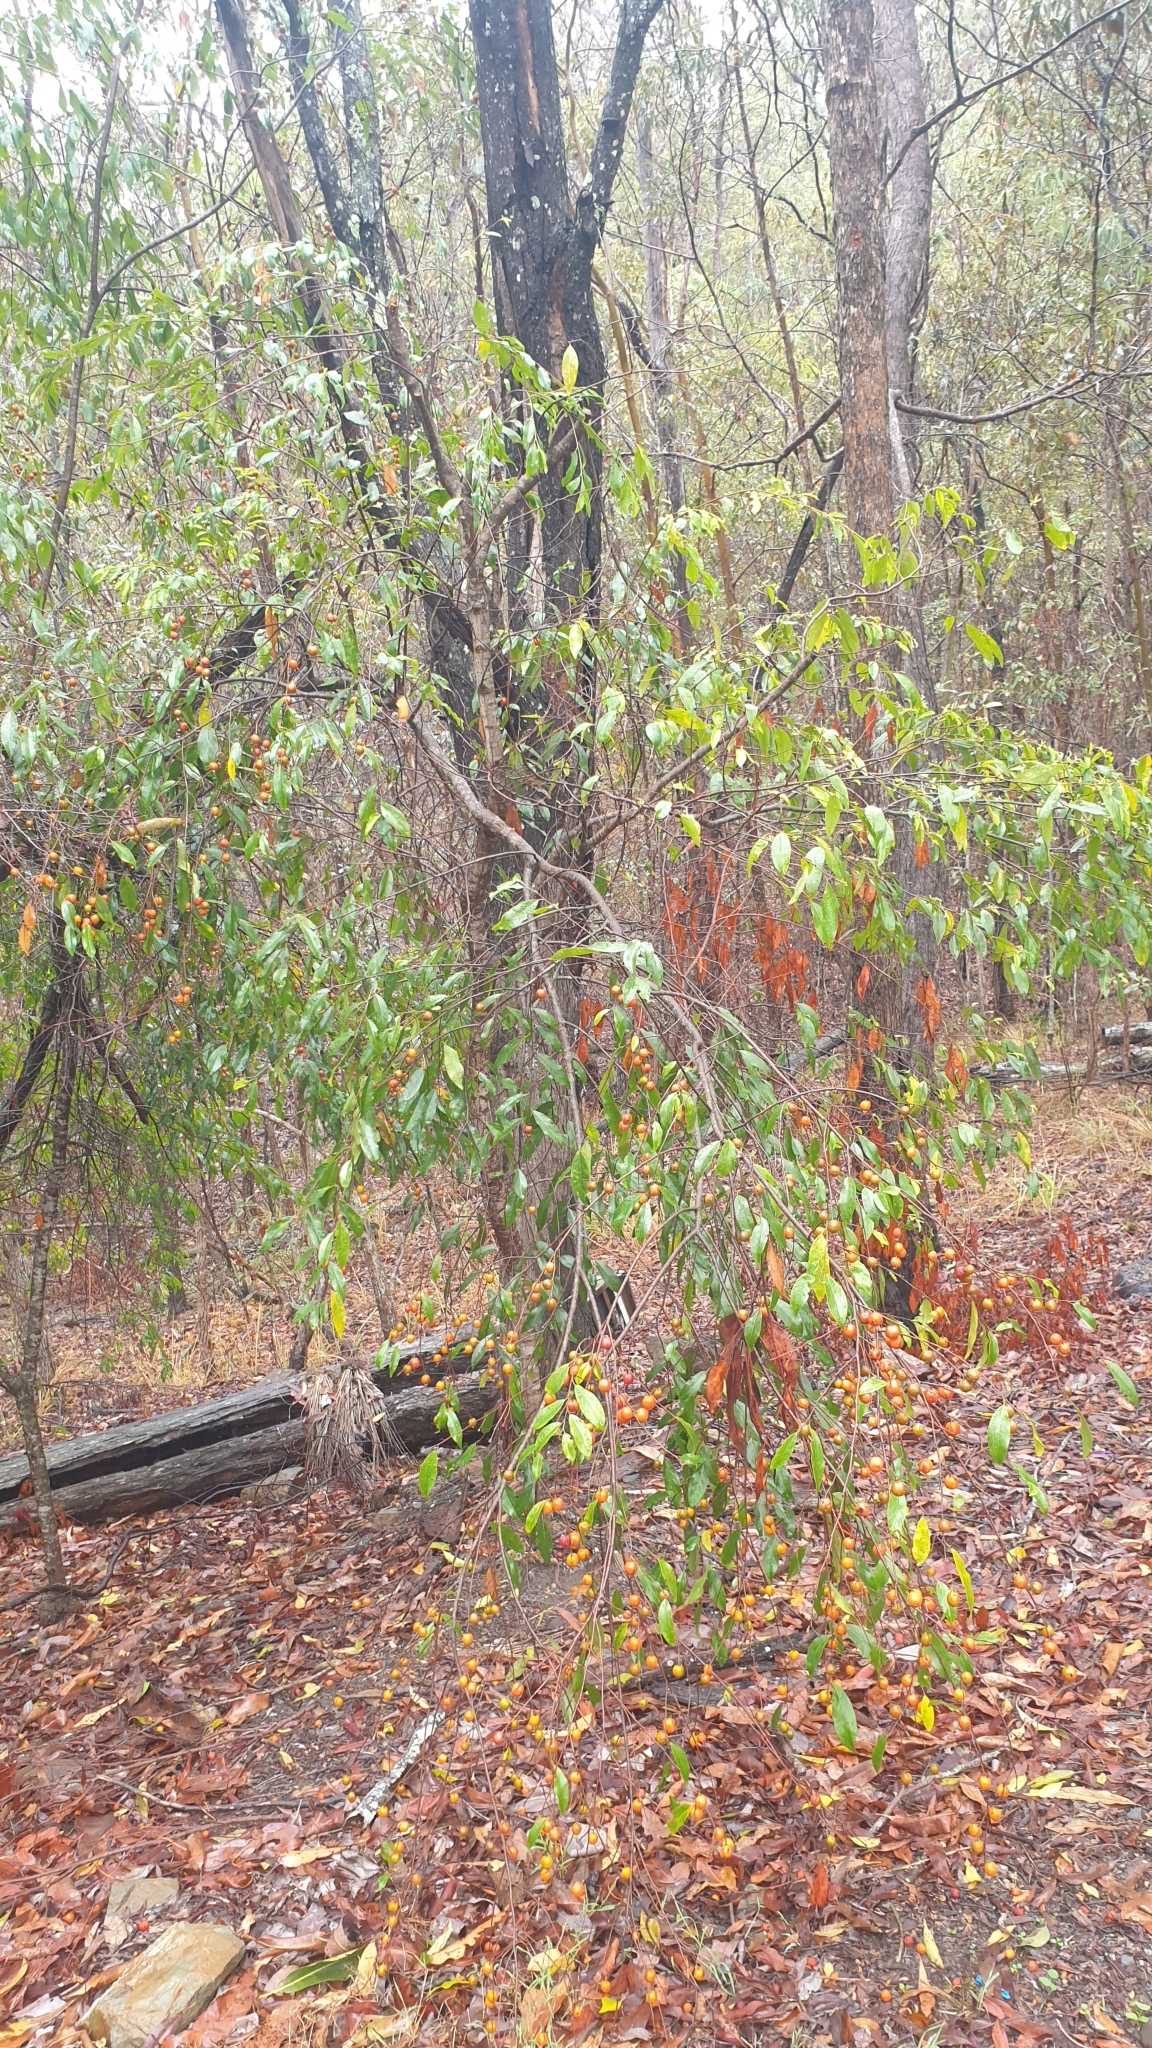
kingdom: Plantae
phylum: Tracheophyta
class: Magnoliopsida
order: Malpighiales
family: Picrodendraceae
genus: Petalostigma
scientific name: Petalostigma triloculare
